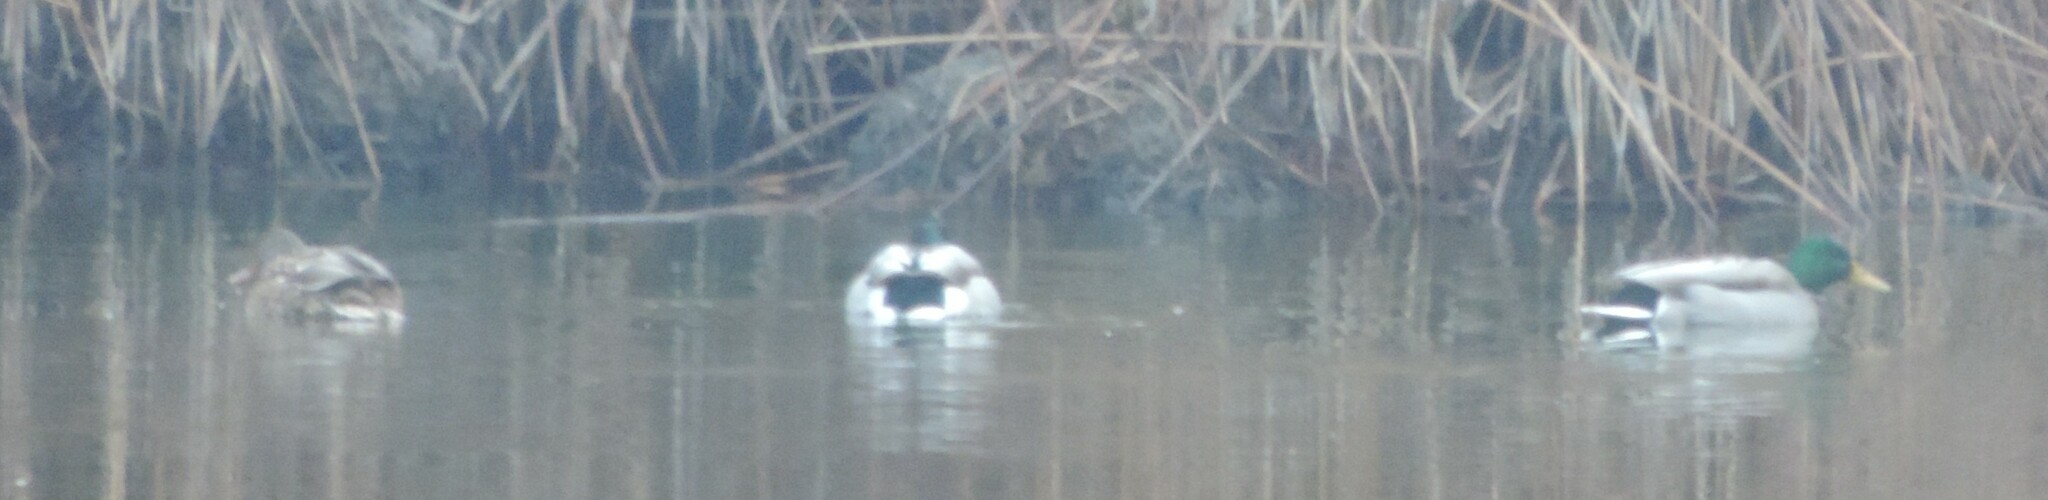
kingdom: Animalia
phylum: Chordata
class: Aves
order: Anseriformes
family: Anatidae
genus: Anas
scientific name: Anas platyrhynchos
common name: Mallard
